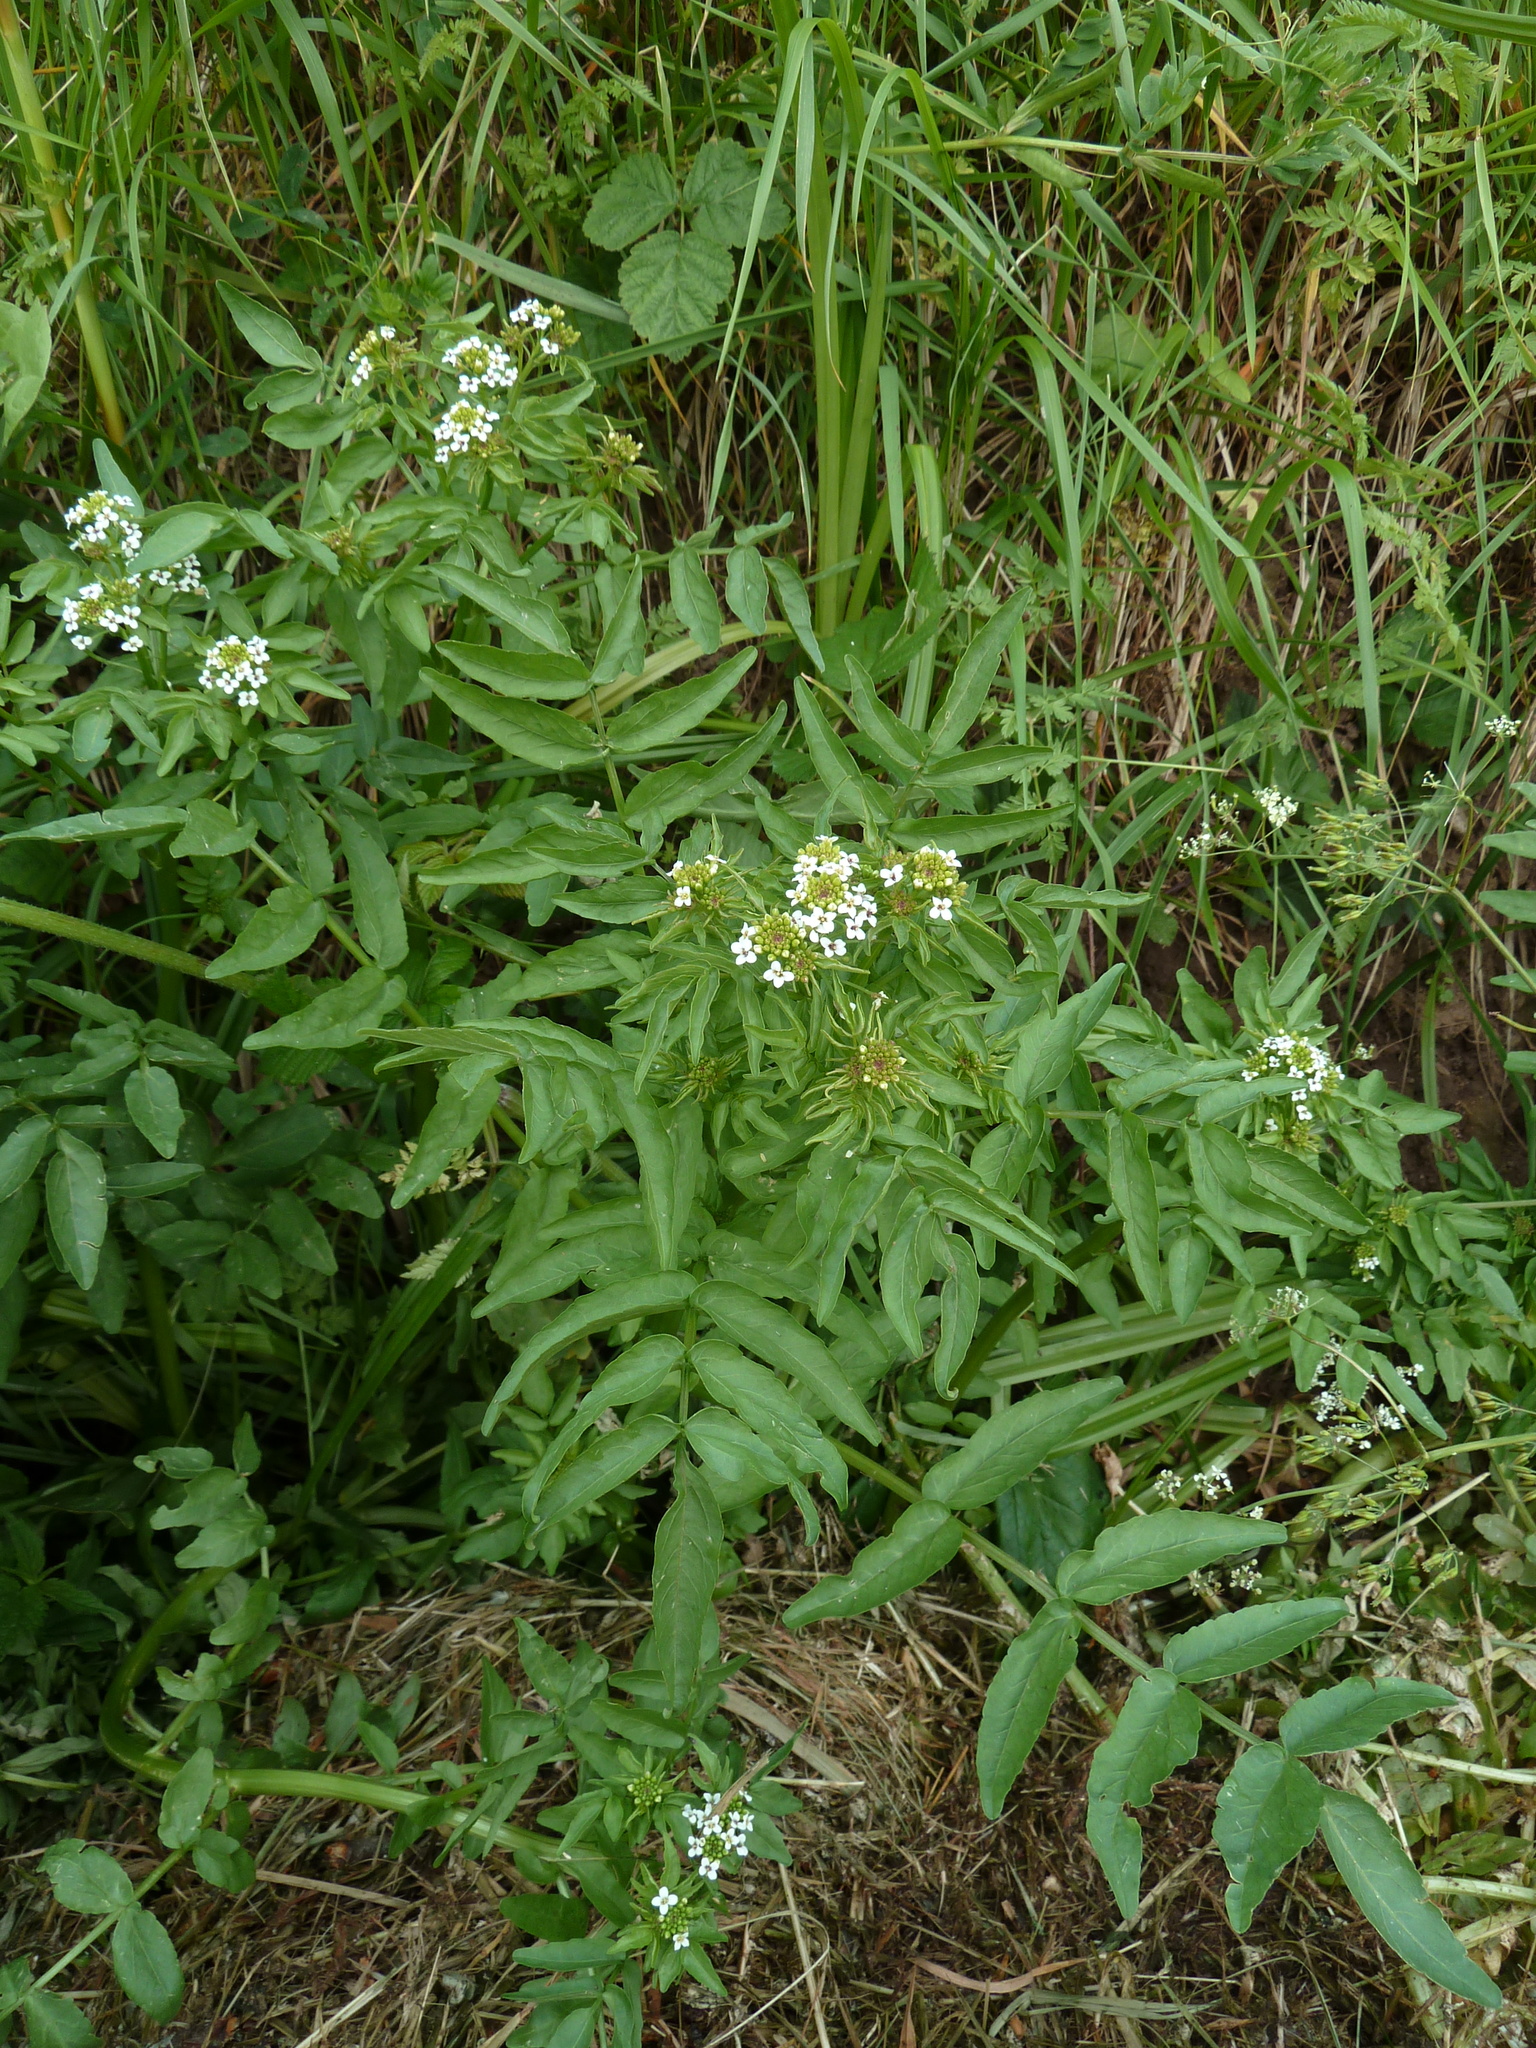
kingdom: Plantae
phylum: Tracheophyta
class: Magnoliopsida
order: Brassicales
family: Brassicaceae
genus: Nasturtium
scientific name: Nasturtium officinale
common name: Watercress
